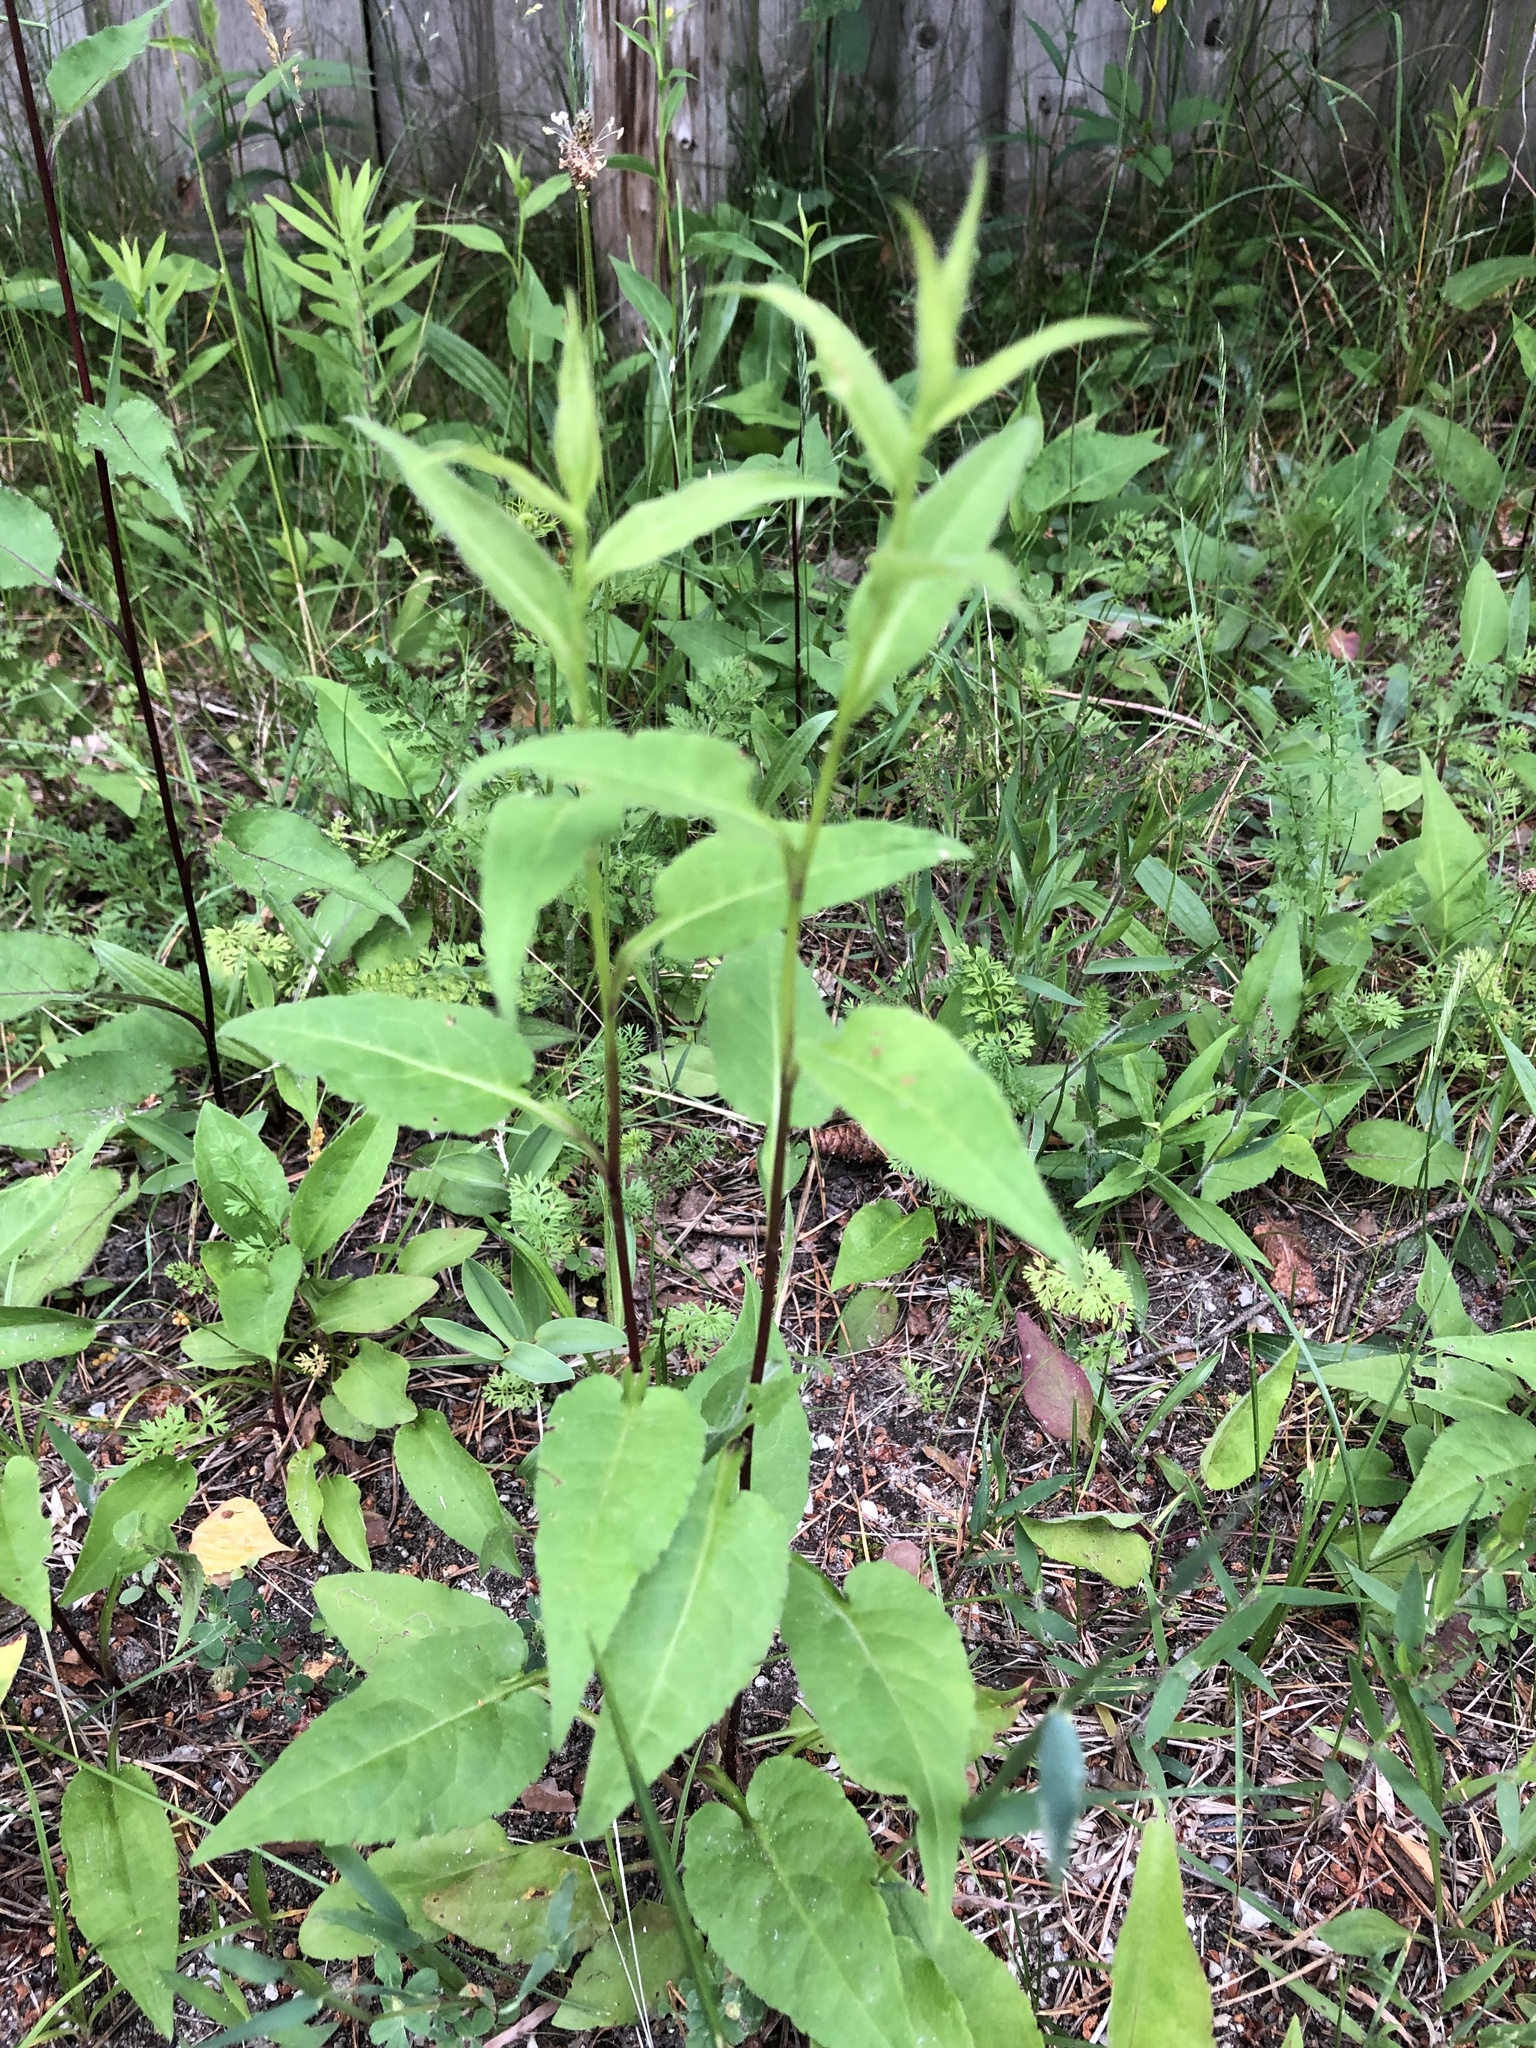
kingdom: Plantae
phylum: Tracheophyta
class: Magnoliopsida
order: Asterales
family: Asteraceae
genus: Symphyotrichum
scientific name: Symphyotrichum urophyllum
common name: Arrow-leaved aster
